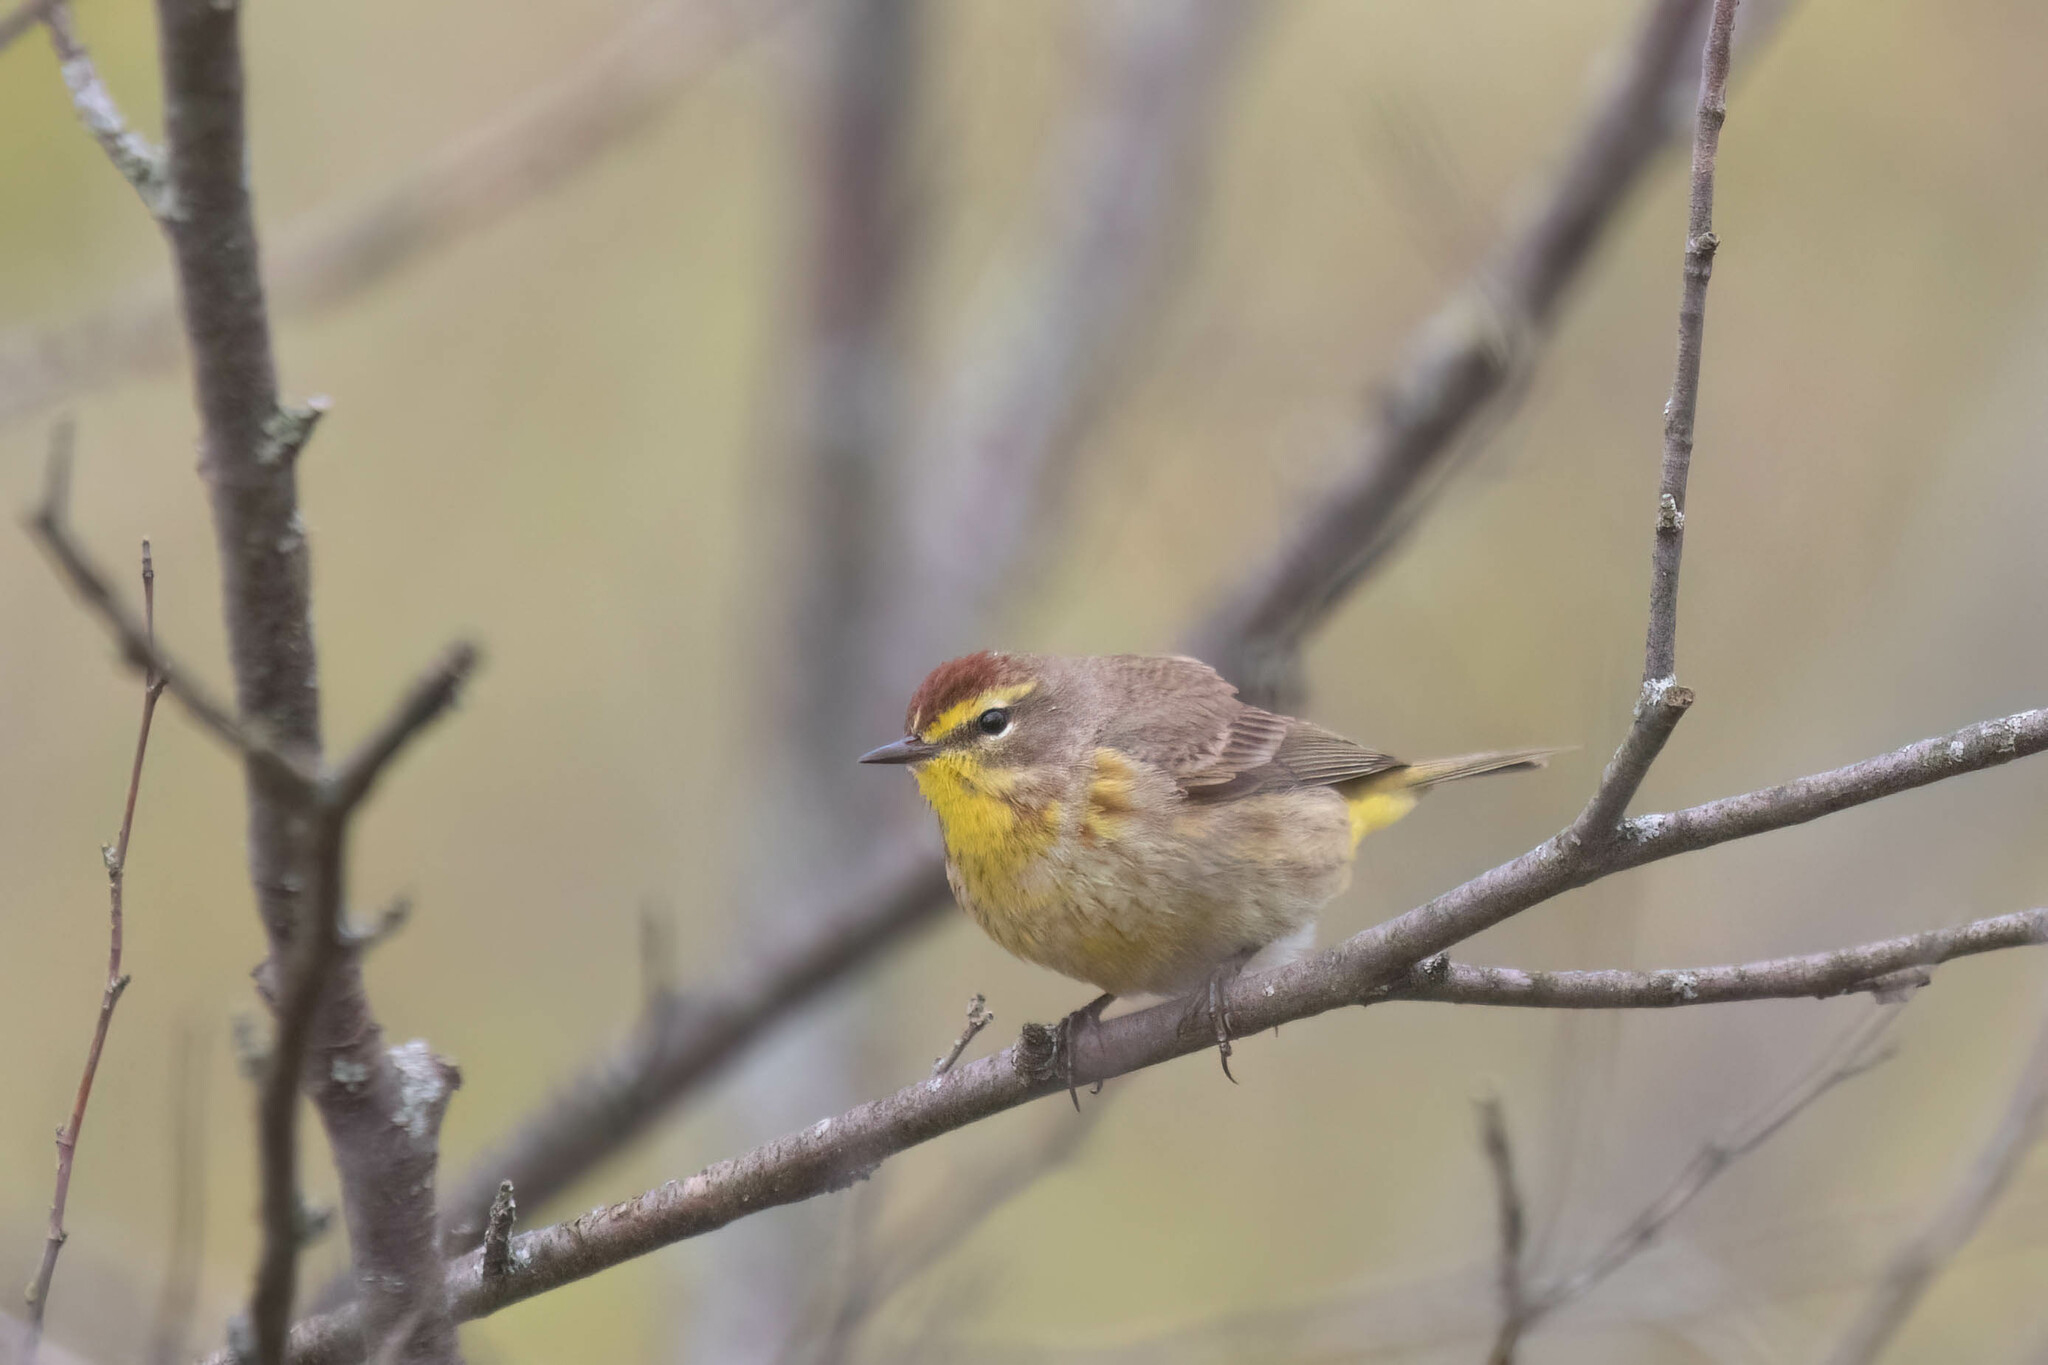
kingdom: Animalia
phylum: Chordata
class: Aves
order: Passeriformes
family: Parulidae
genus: Setophaga
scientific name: Setophaga palmarum
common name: Palm warbler
